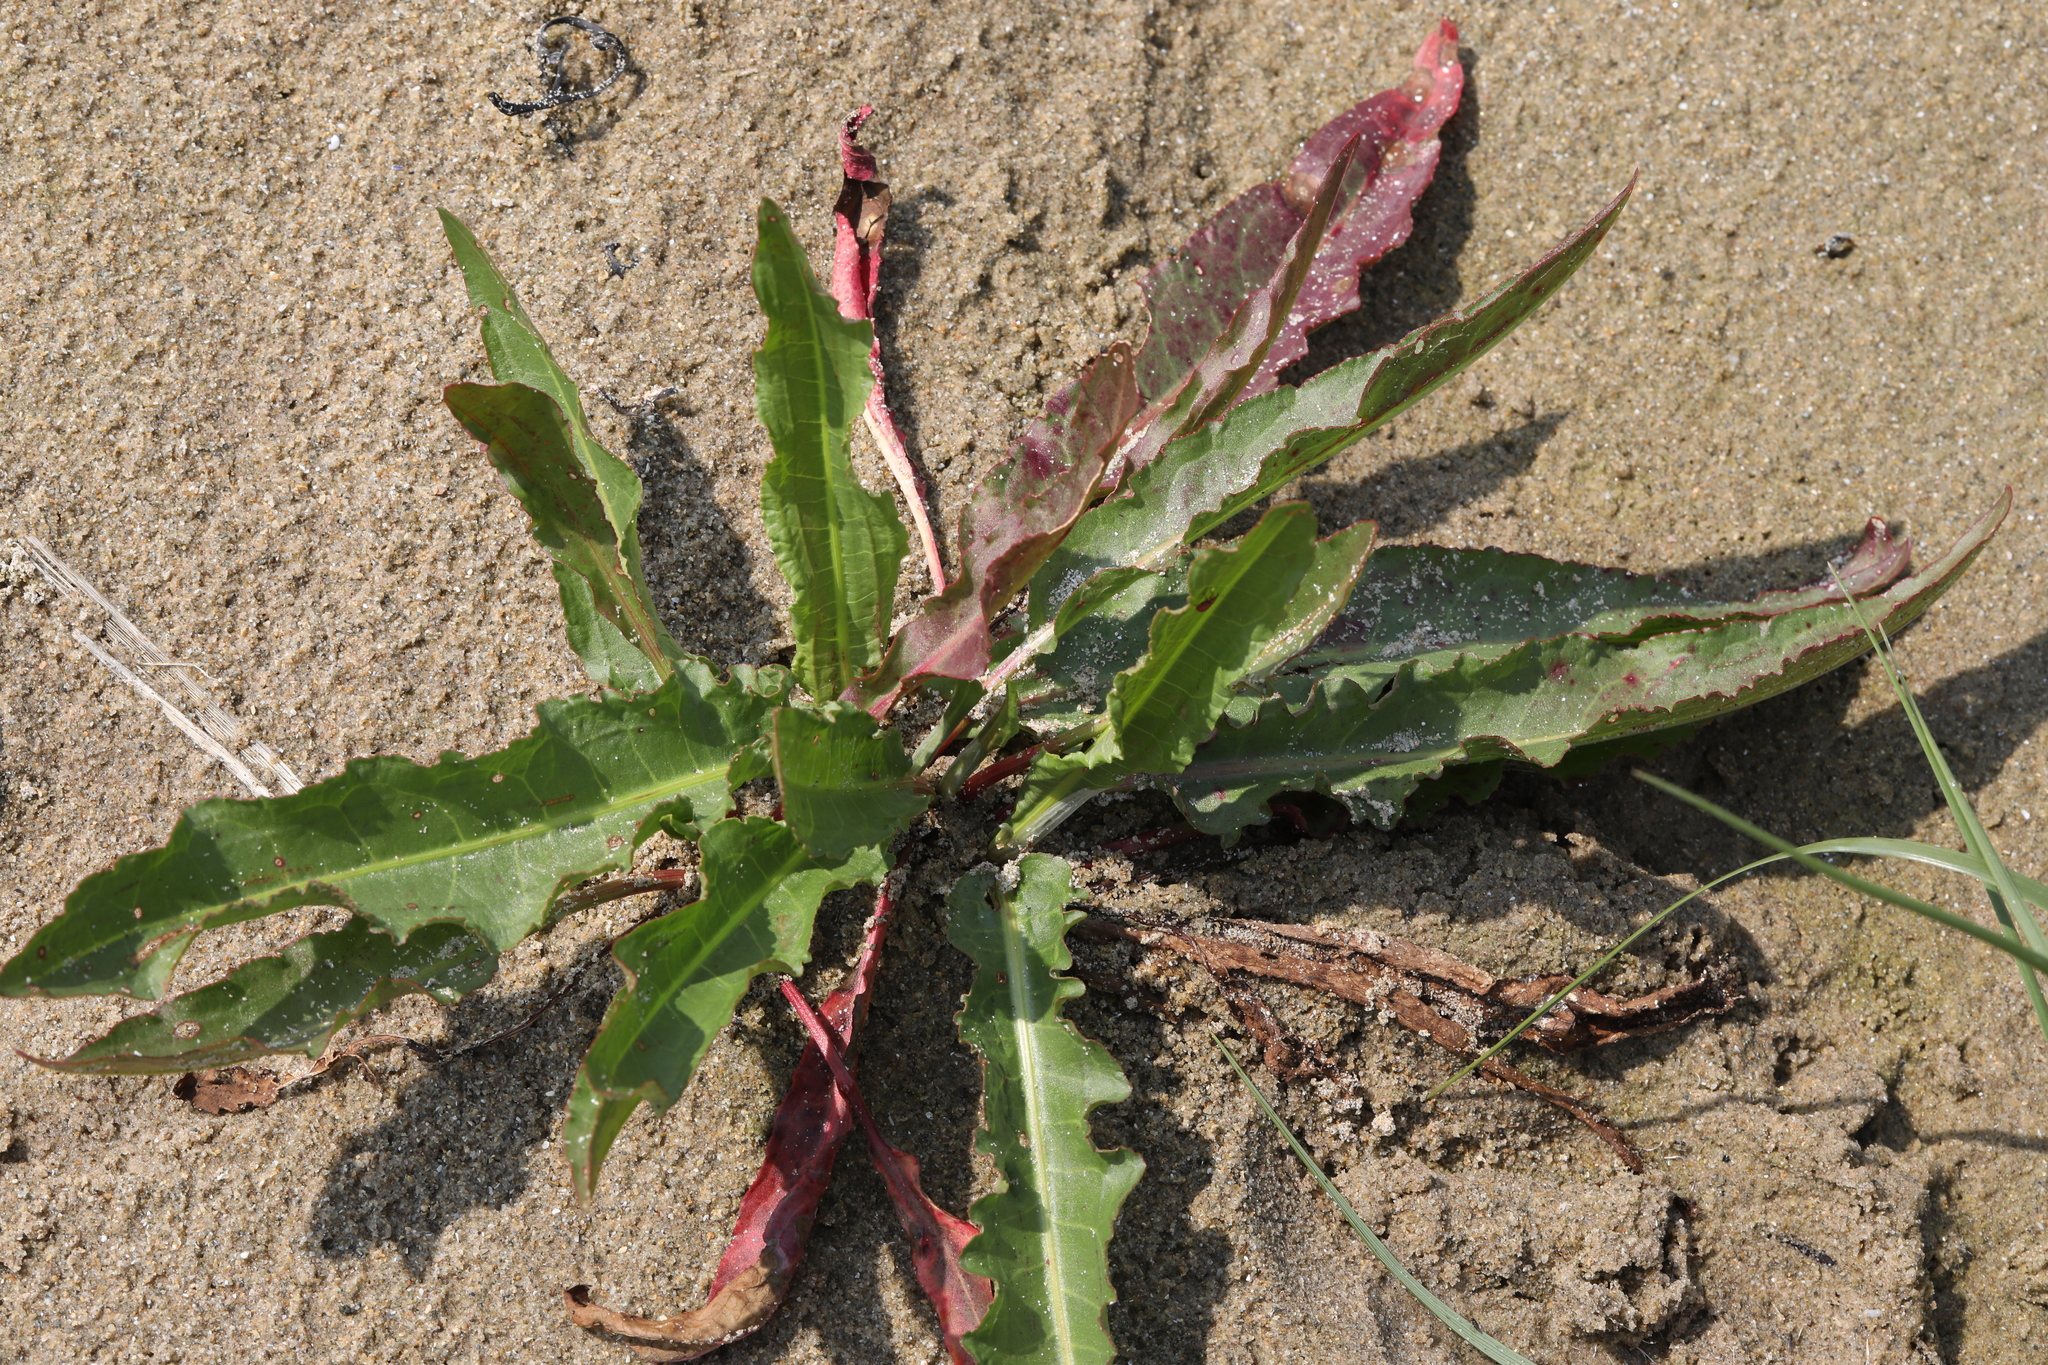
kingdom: Plantae
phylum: Tracheophyta
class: Magnoliopsida
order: Caryophyllales
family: Polygonaceae
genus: Rumex
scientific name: Rumex crispus
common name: Curled dock
